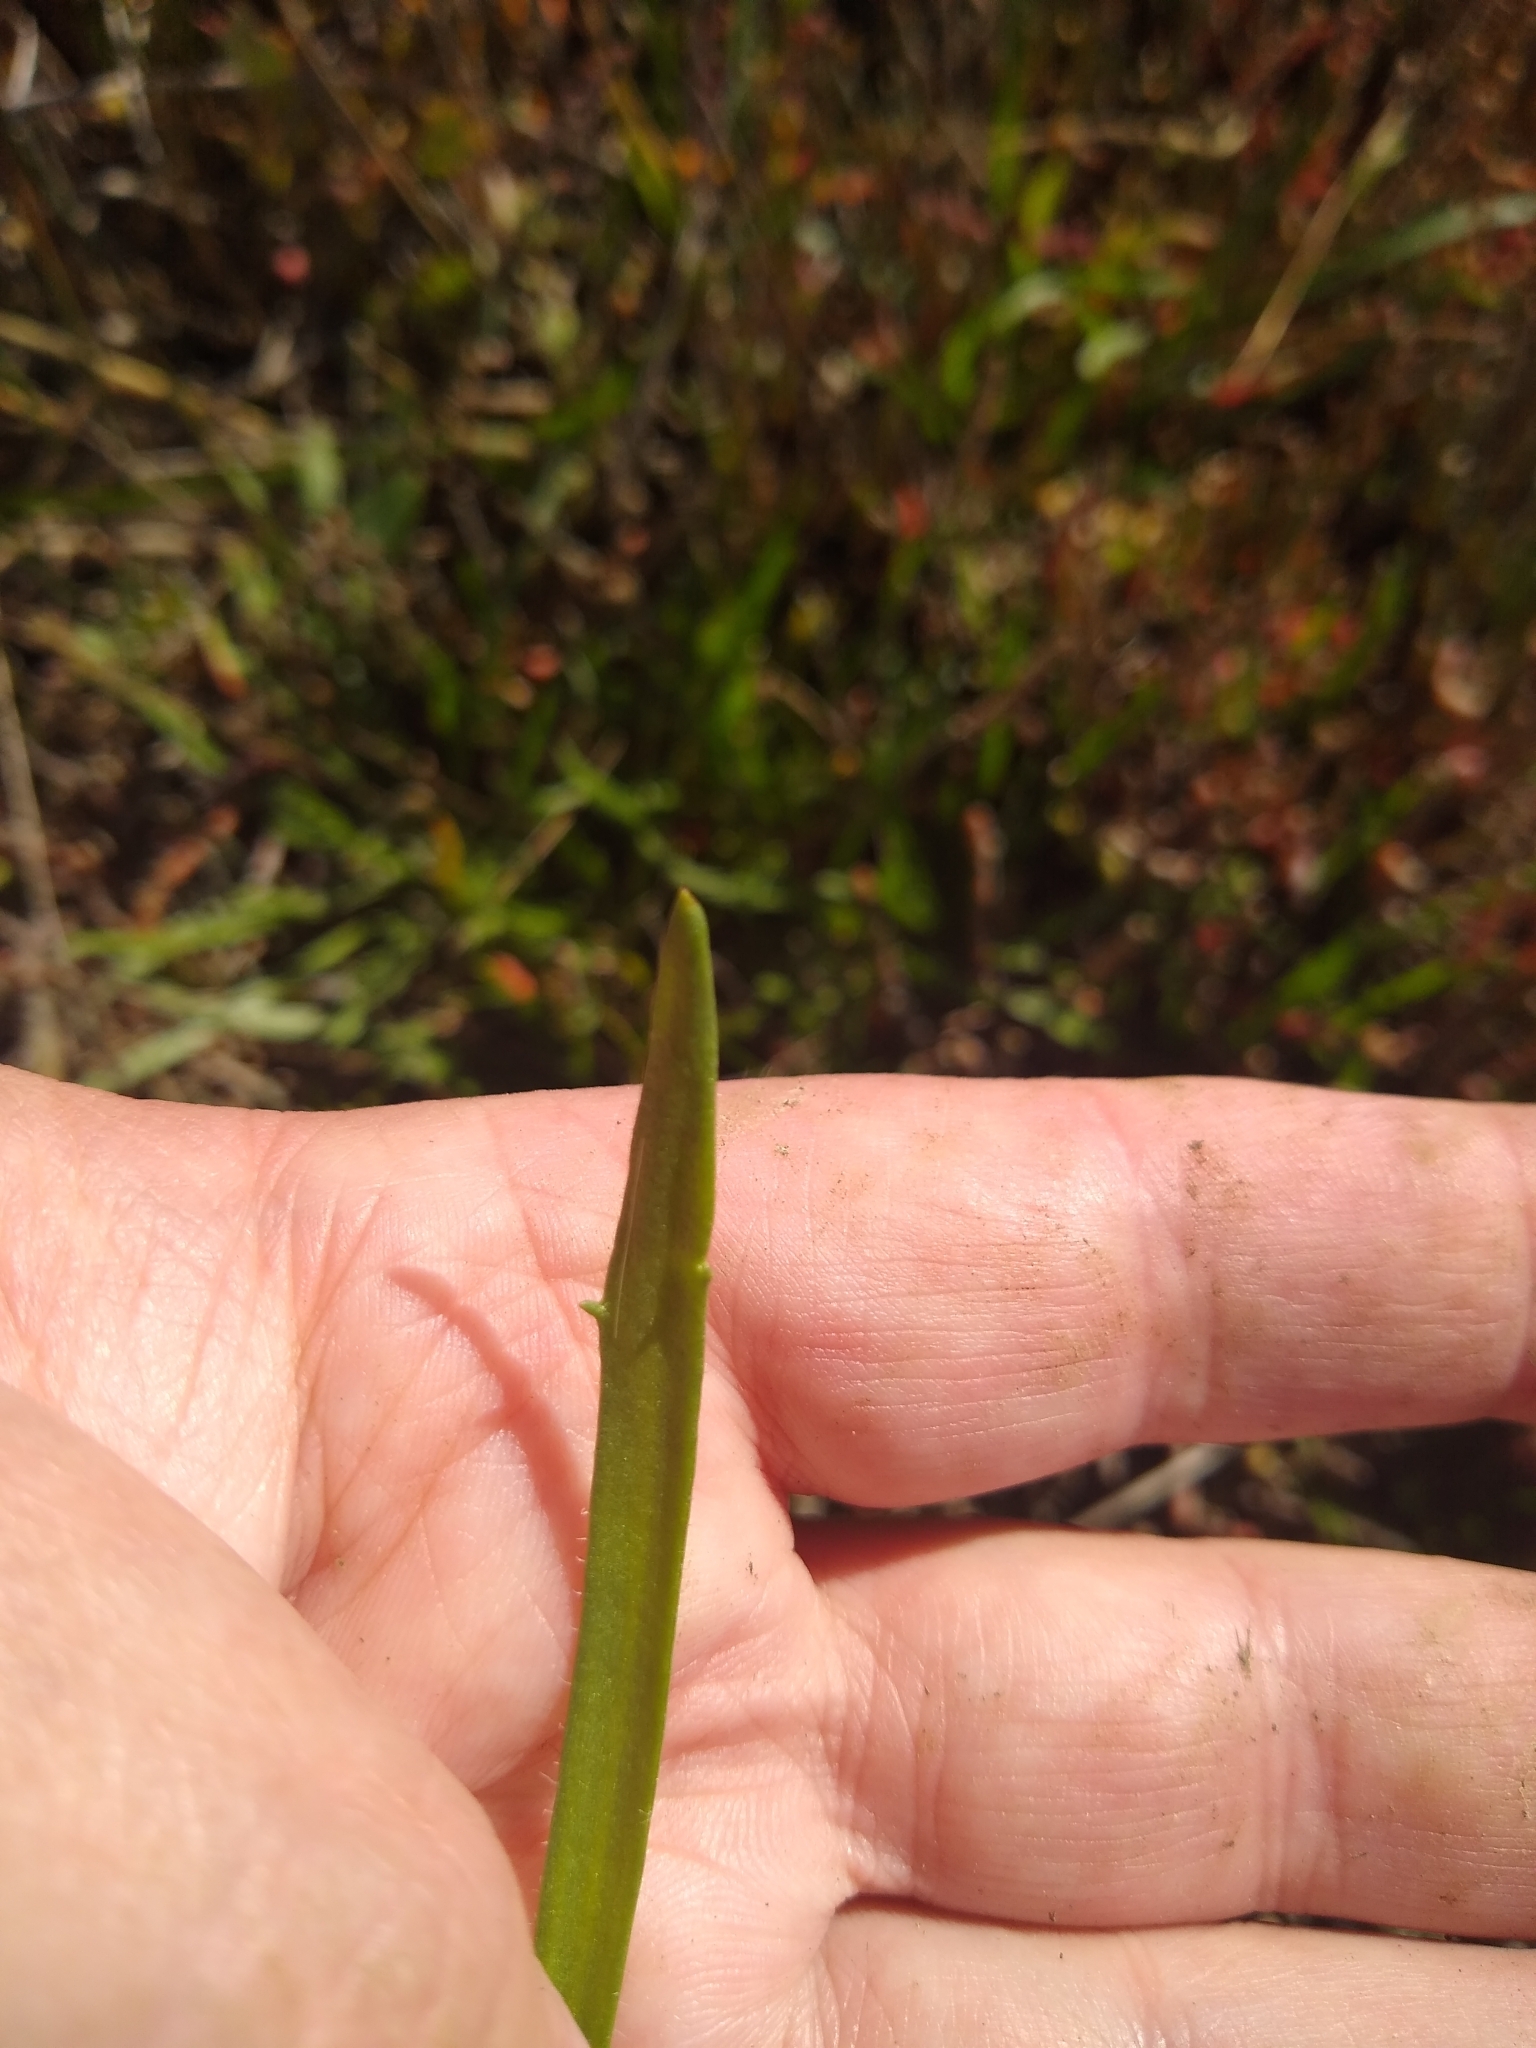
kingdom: Plantae
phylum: Tracheophyta
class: Magnoliopsida
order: Lamiales
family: Plantaginaceae
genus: Plantago
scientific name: Plantago coronopus
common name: Buck's-horn plantain
